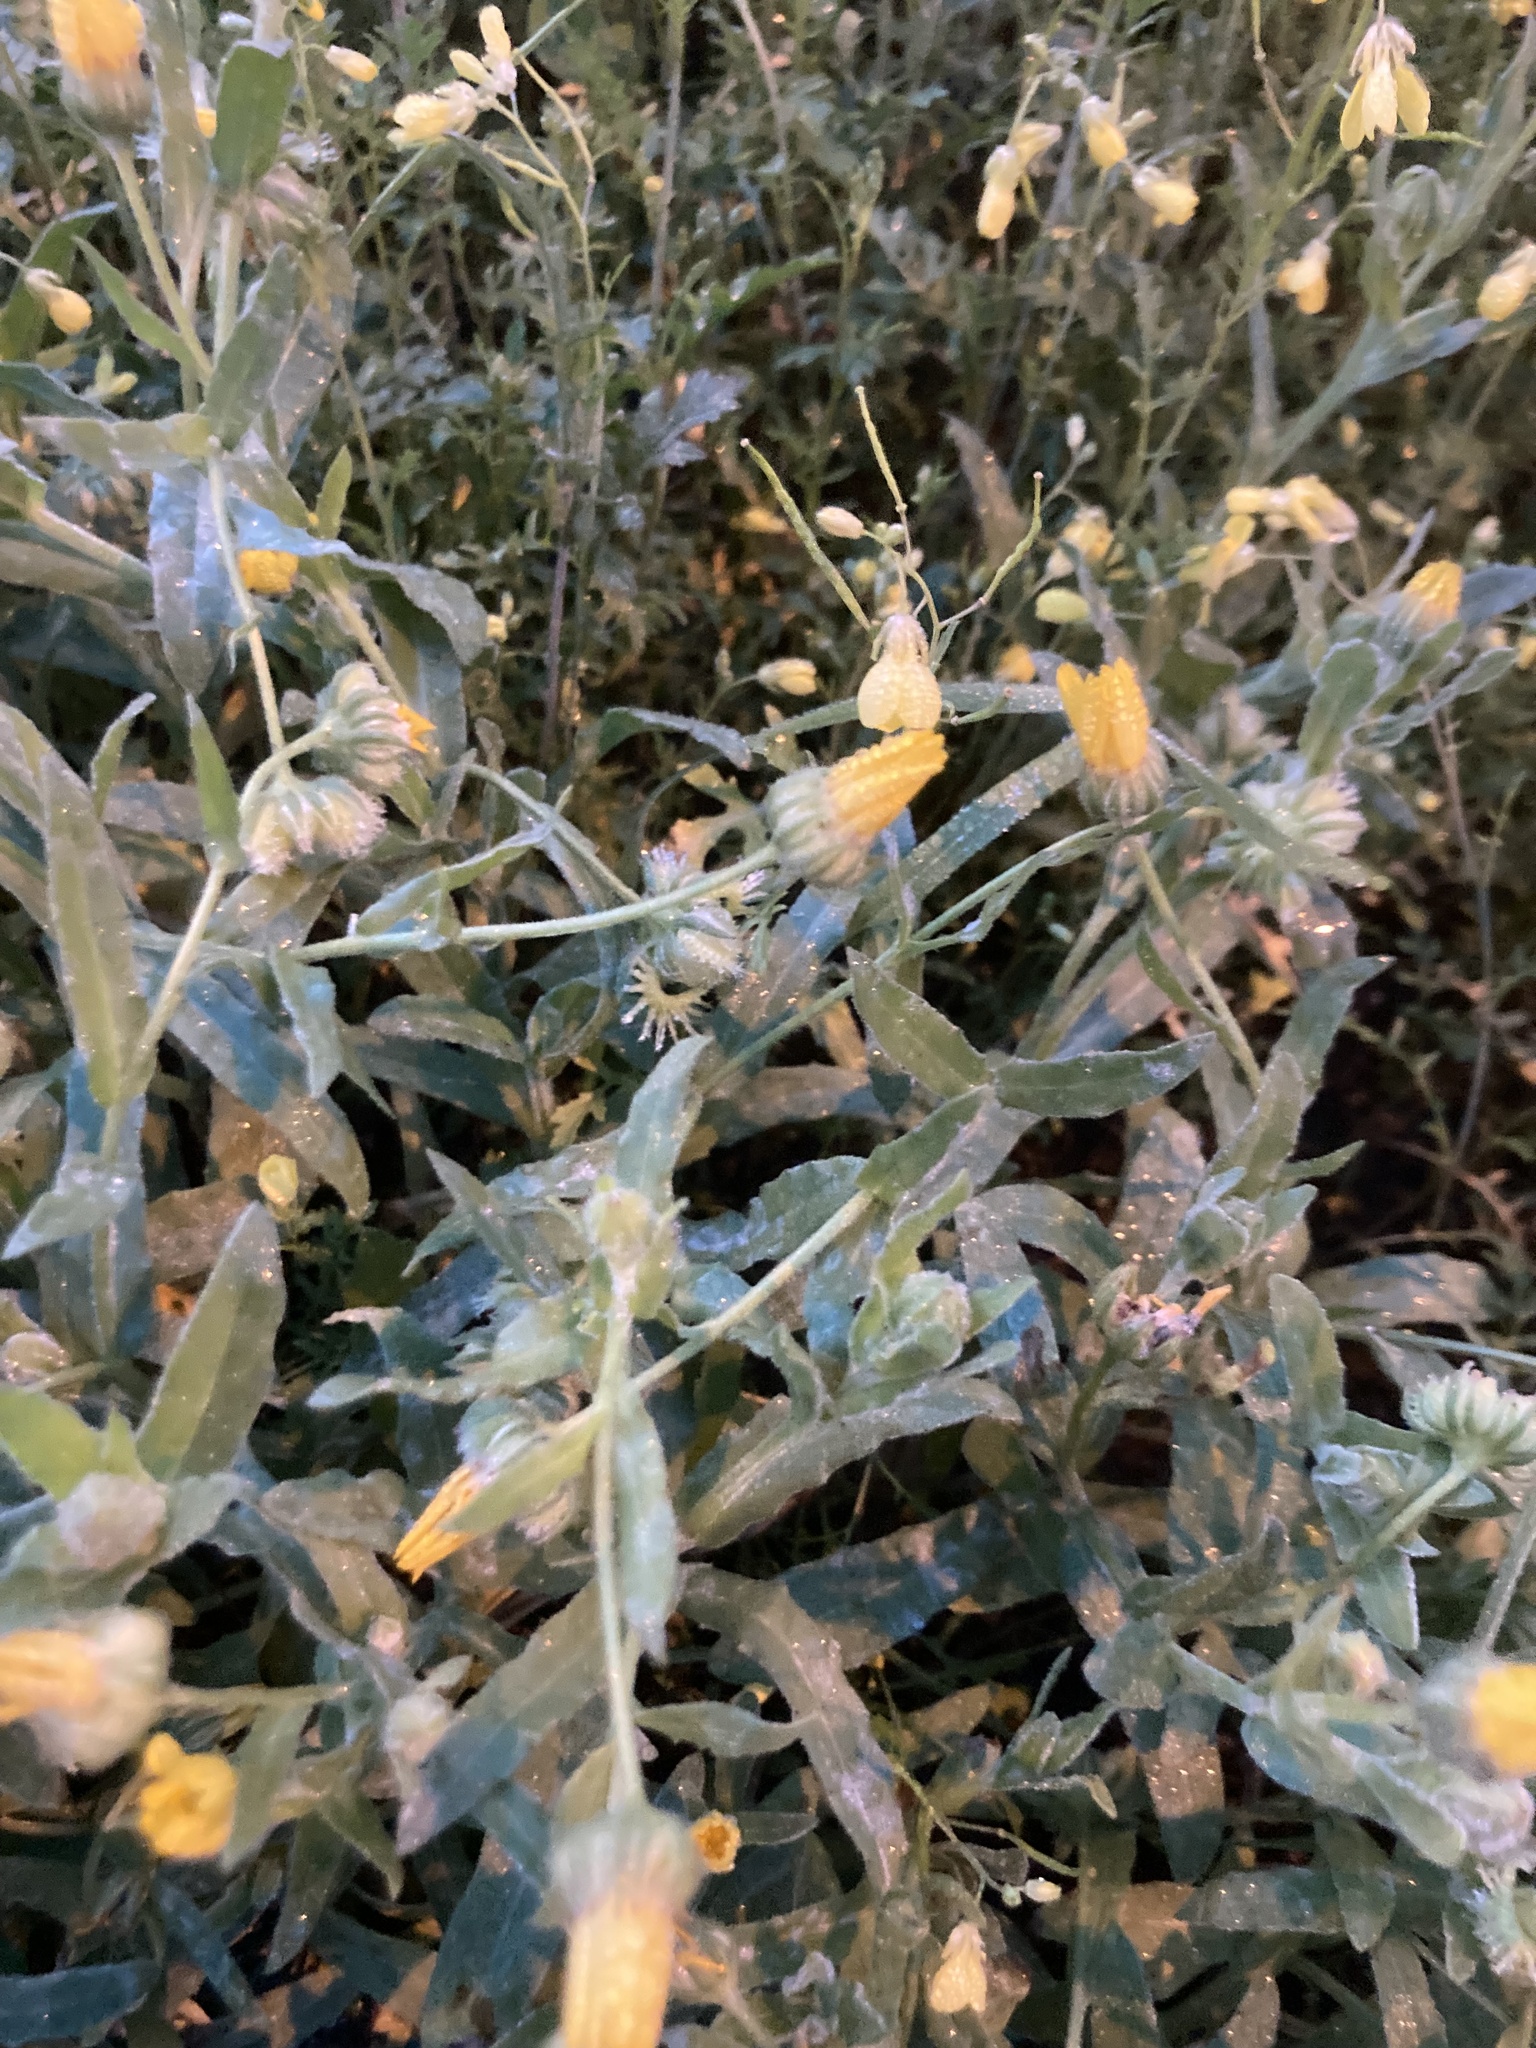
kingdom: Plantae
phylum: Tracheophyta
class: Magnoliopsida
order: Asterales
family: Asteraceae
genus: Calendula
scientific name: Calendula arvensis
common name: Field marigold
